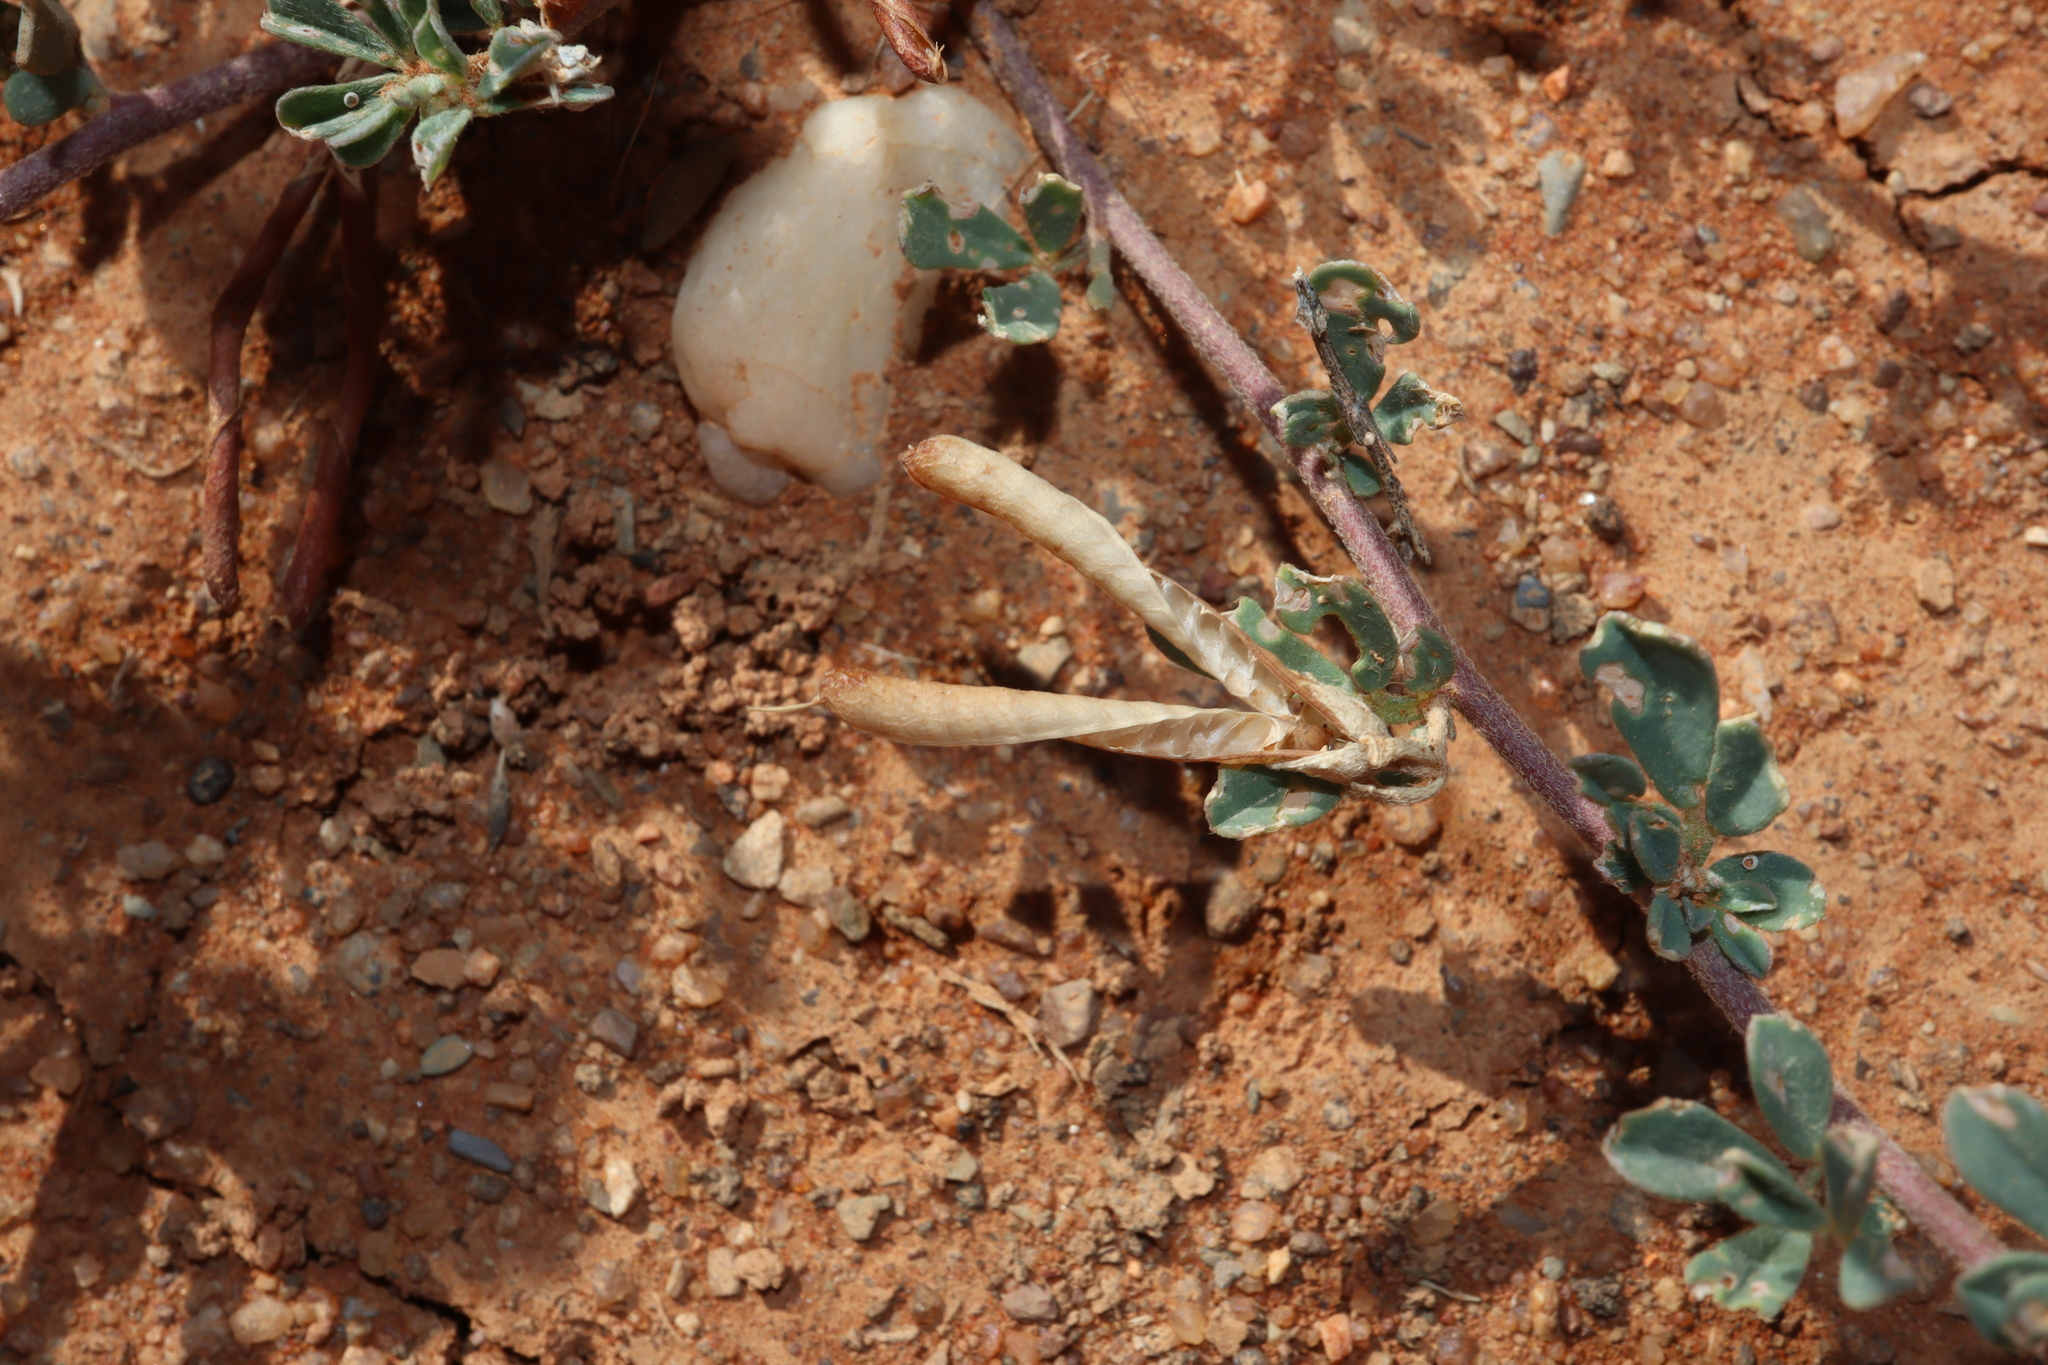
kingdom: Plantae
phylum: Tracheophyta
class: Magnoliopsida
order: Fabales
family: Fabaceae
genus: Lotus
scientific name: Lotus cruentus
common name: Red bird's-foot trefoil
